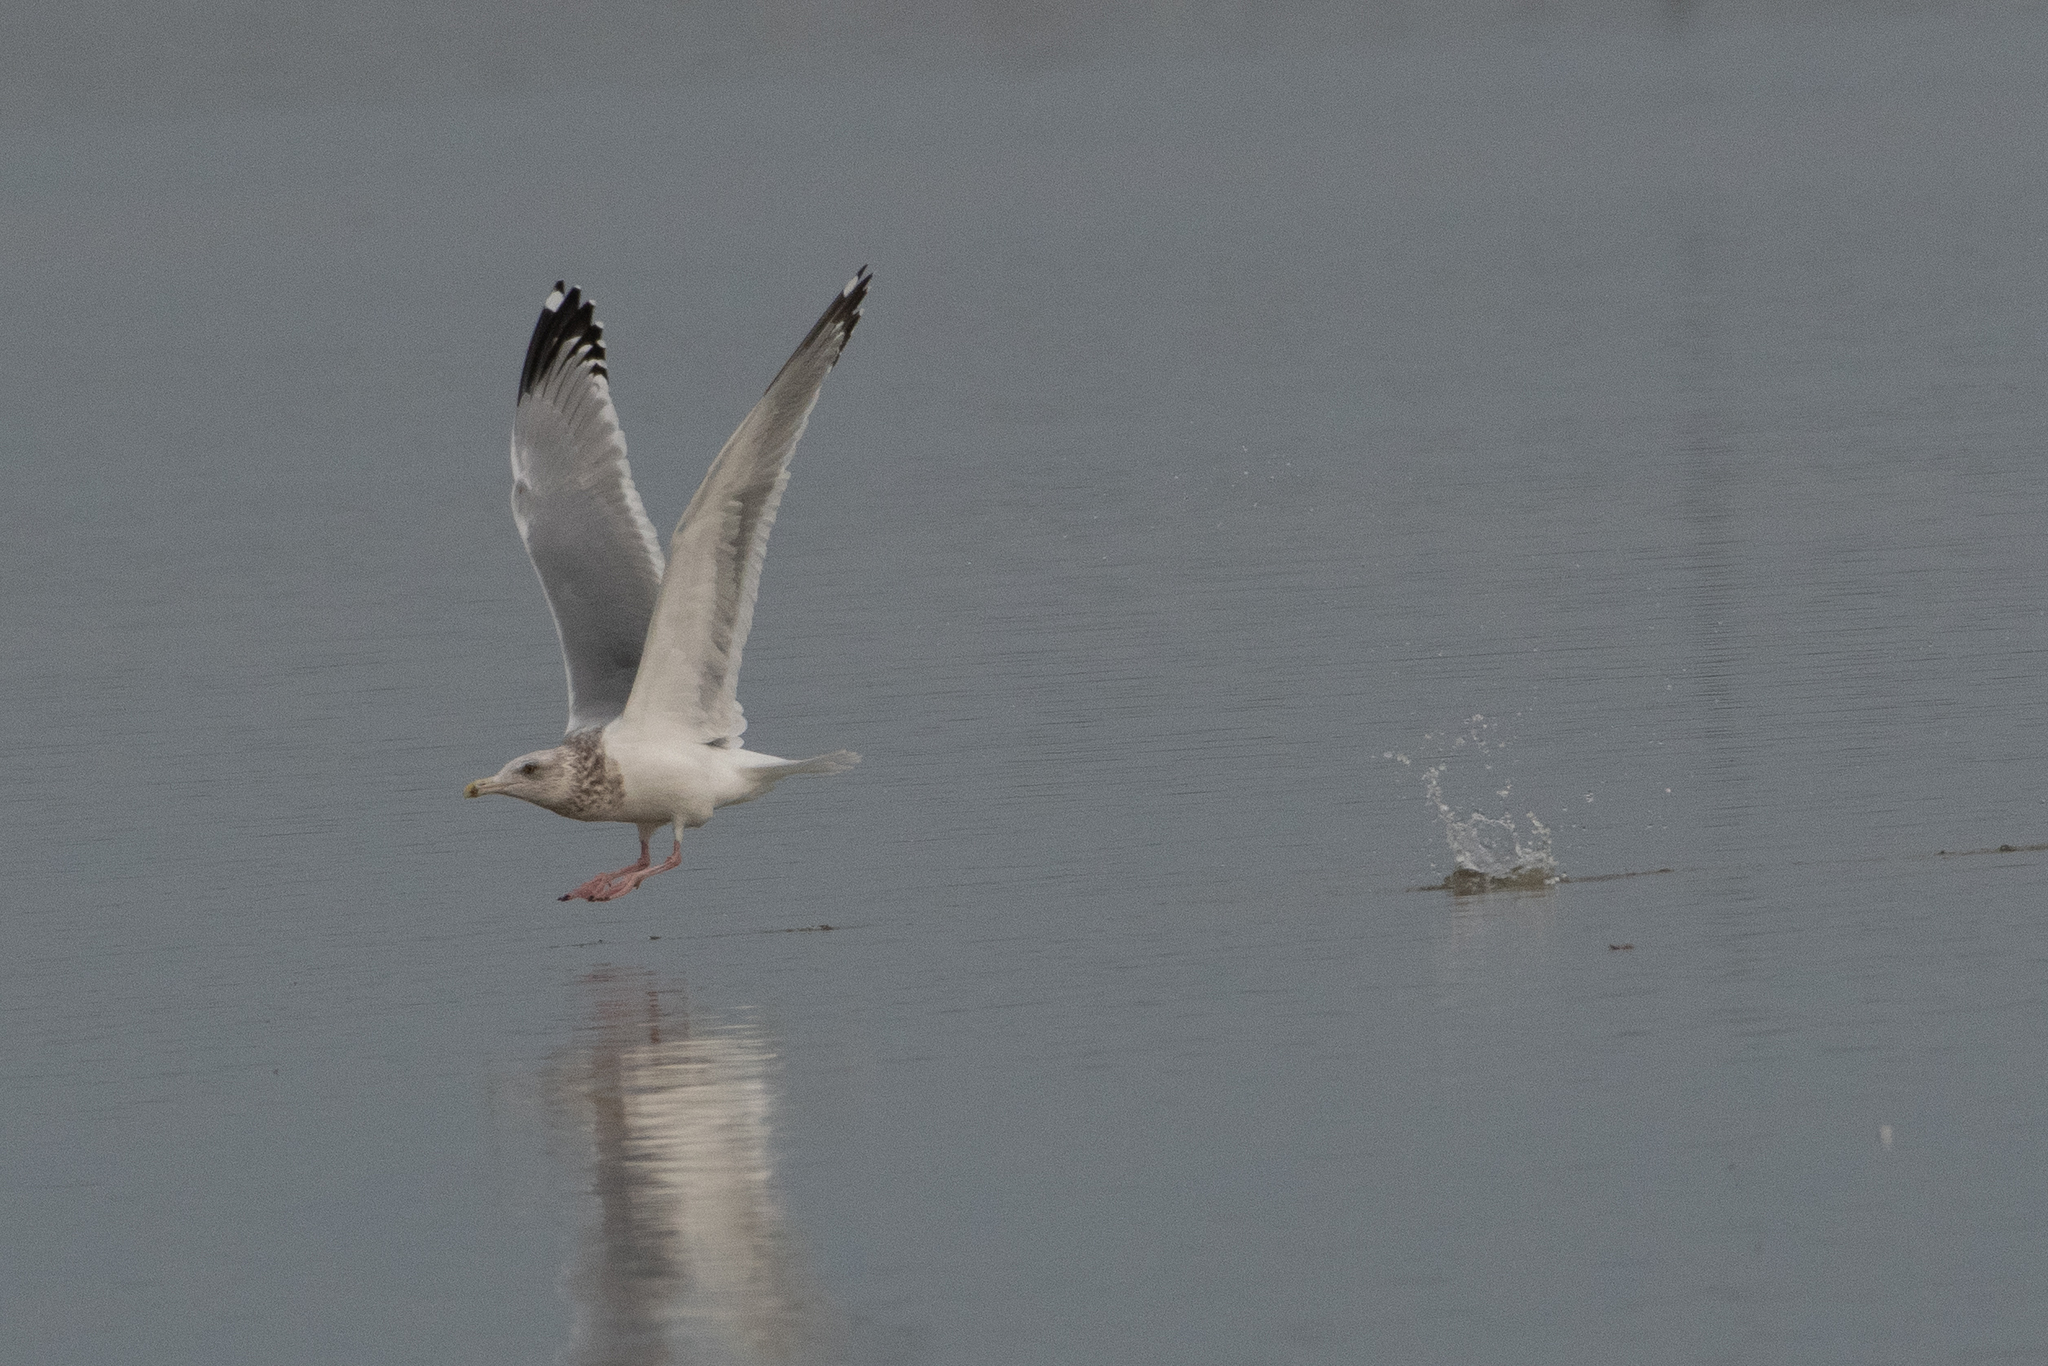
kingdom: Animalia
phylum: Chordata
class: Aves
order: Charadriiformes
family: Laridae
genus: Larus
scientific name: Larus argentatus
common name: Herring gull
